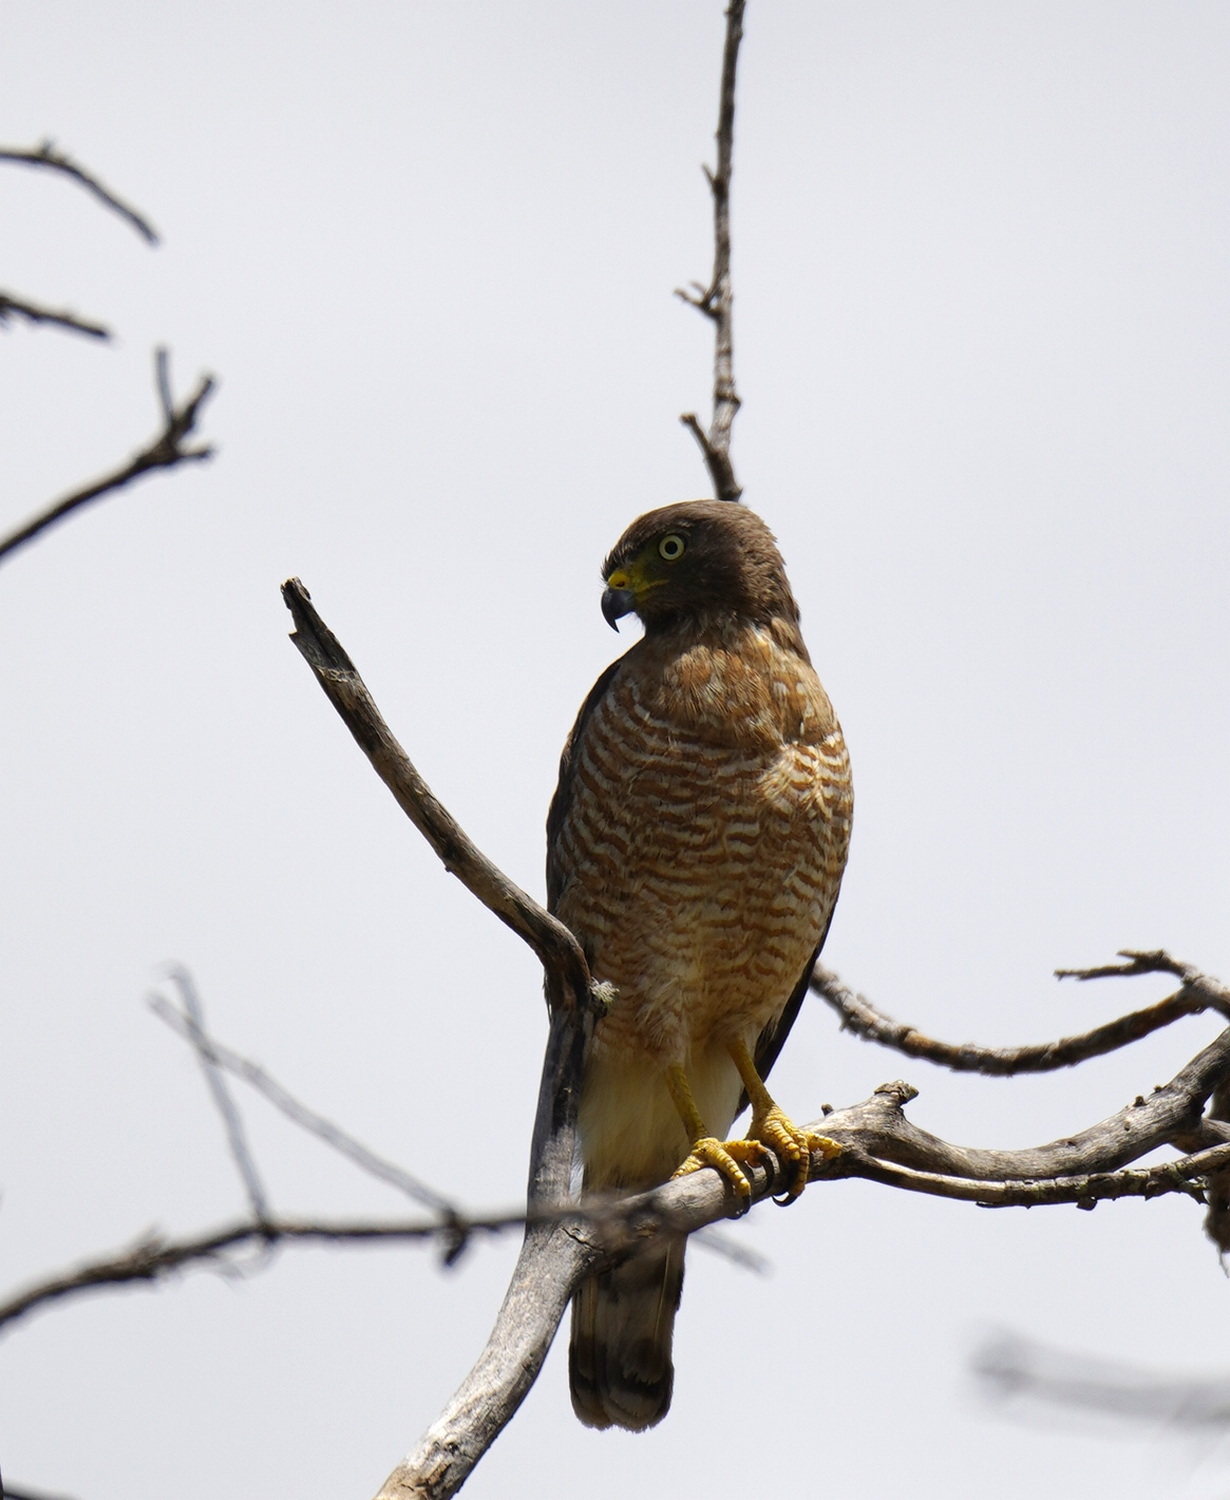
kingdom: Animalia
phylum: Chordata
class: Aves
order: Accipitriformes
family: Accipitridae
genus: Rupornis
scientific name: Rupornis magnirostris
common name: Roadside hawk
